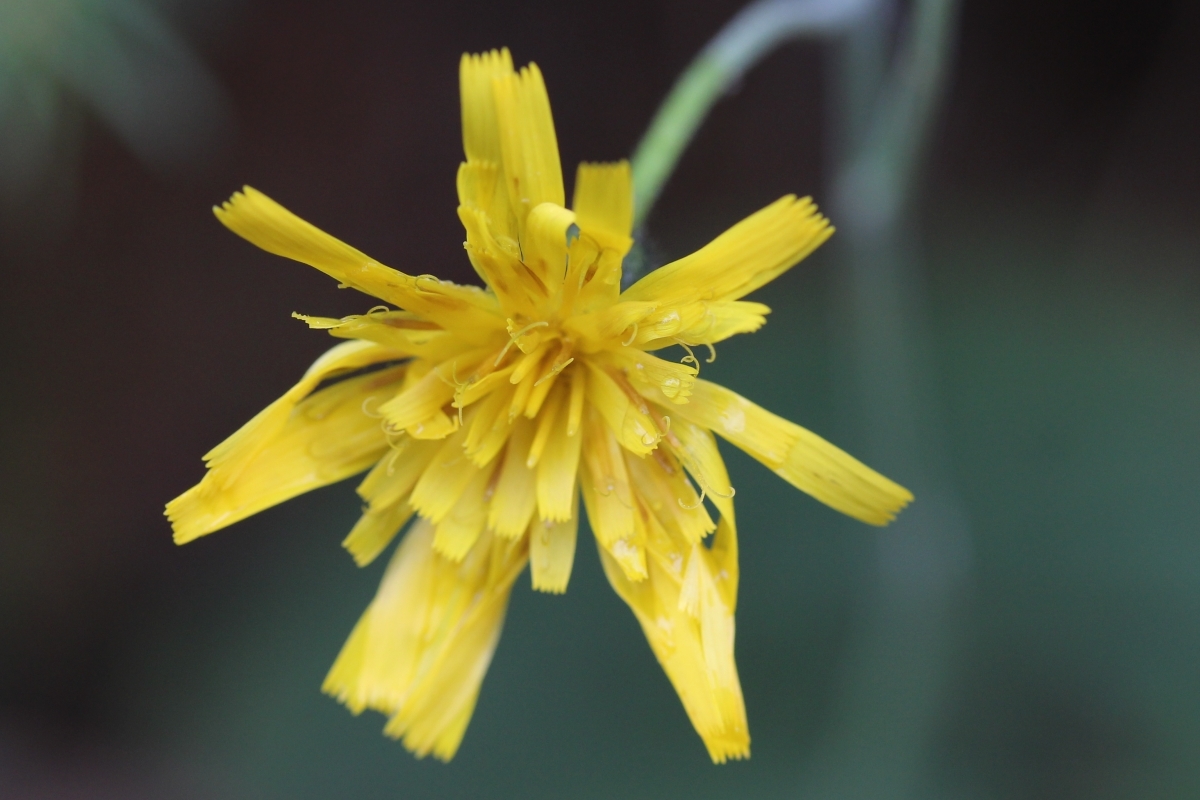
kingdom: Plantae
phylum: Tracheophyta
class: Magnoliopsida
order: Asterales
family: Asteraceae
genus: Hieracium
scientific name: Hieracium
